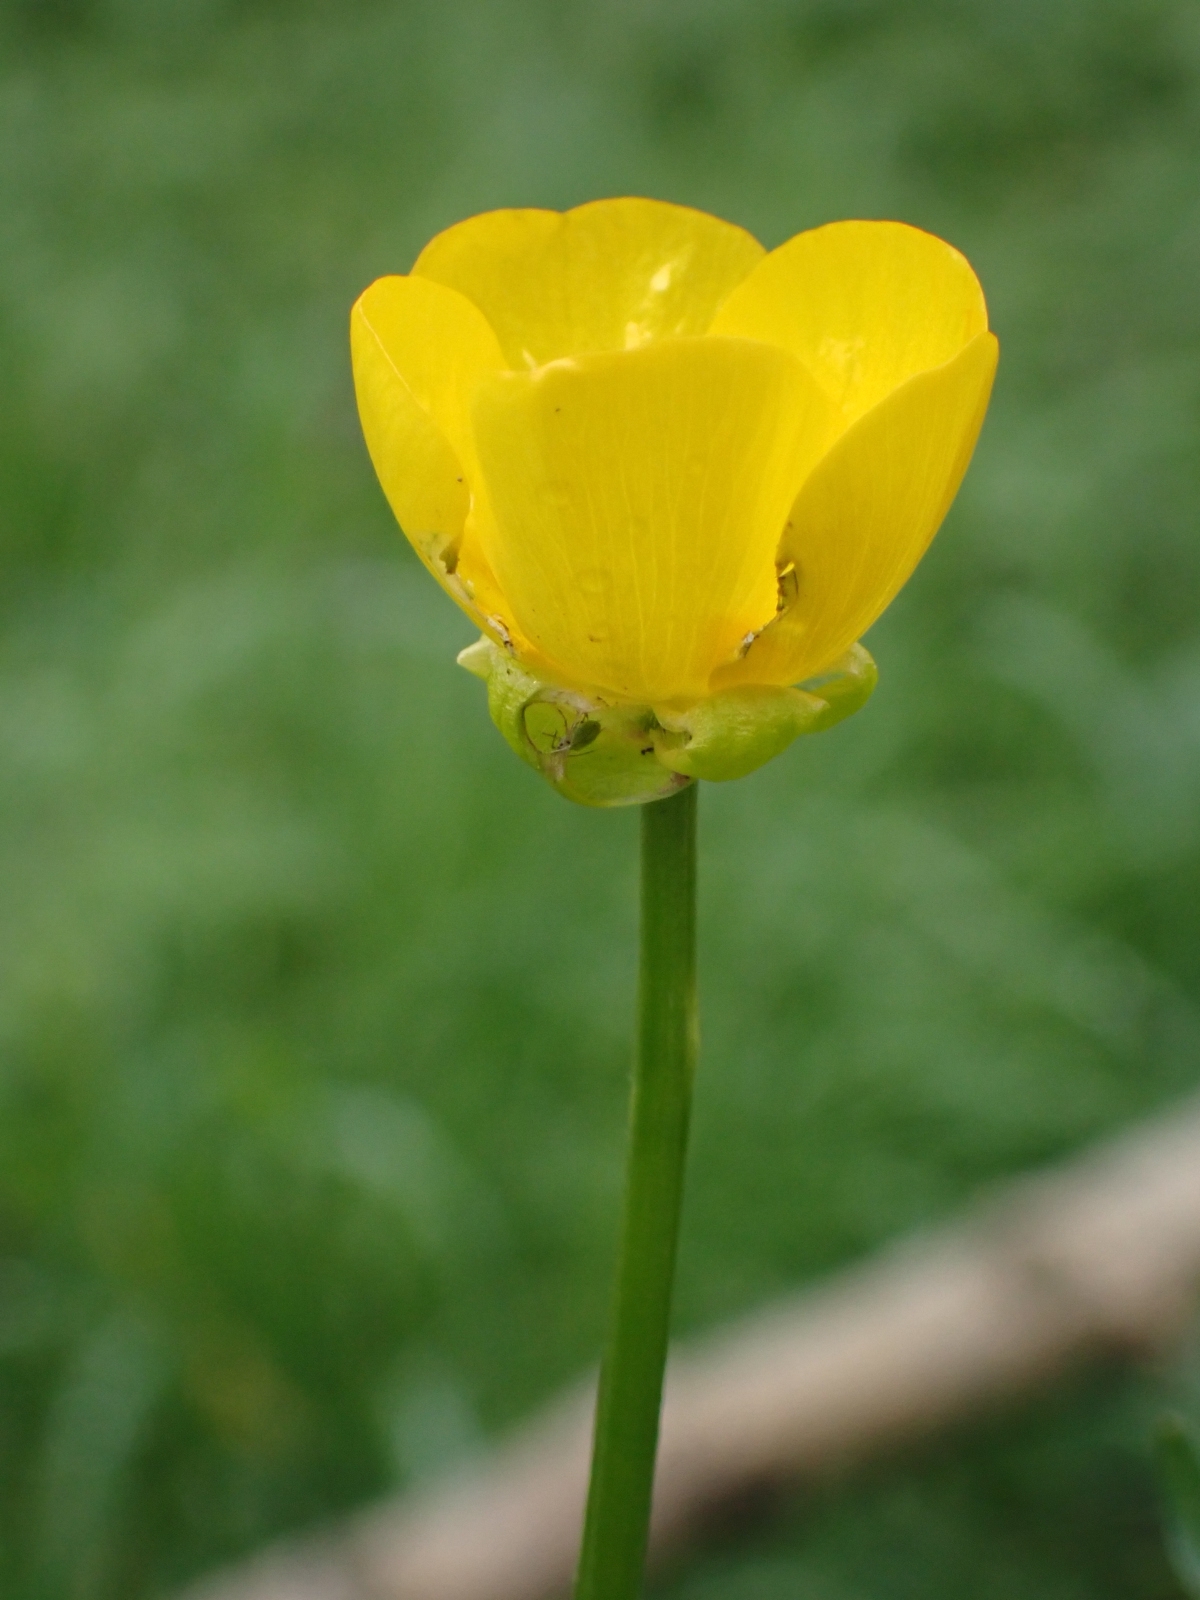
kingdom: Plantae
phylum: Tracheophyta
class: Magnoliopsida
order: Ranunculales
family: Ranunculaceae
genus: Ranunculus
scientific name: Ranunculus bulbosus
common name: Bulbous buttercup
